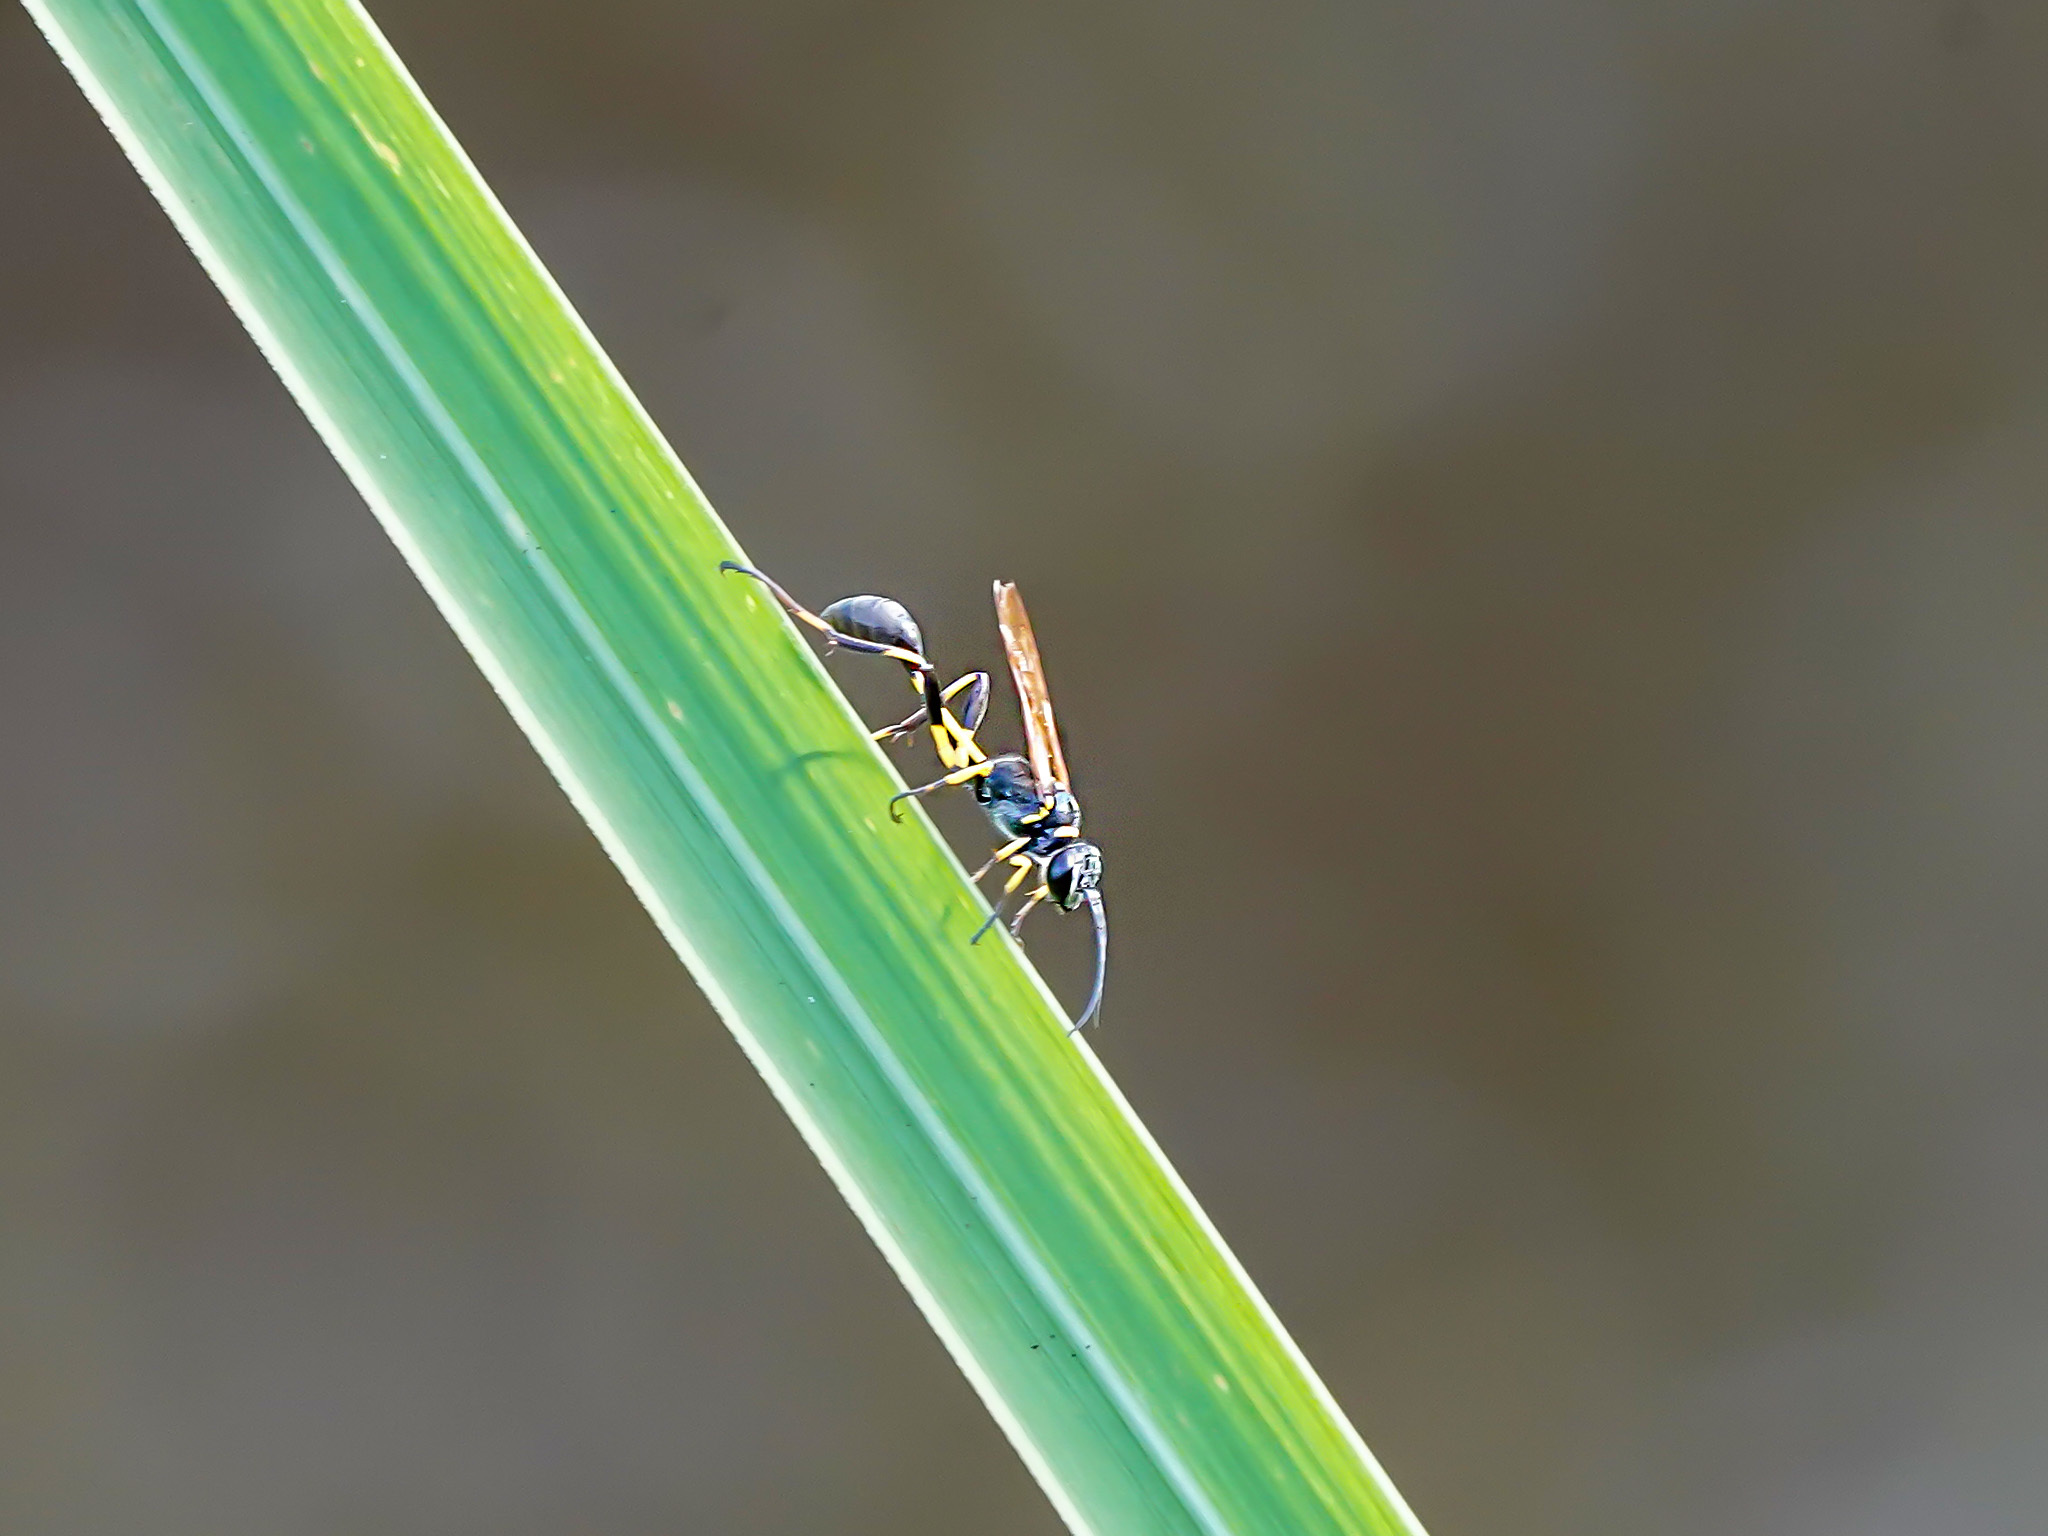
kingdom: Animalia
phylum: Arthropoda
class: Insecta
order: Hymenoptera
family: Sphecidae
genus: Sceliphron
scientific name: Sceliphron madraspatanum
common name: Mud dauber
